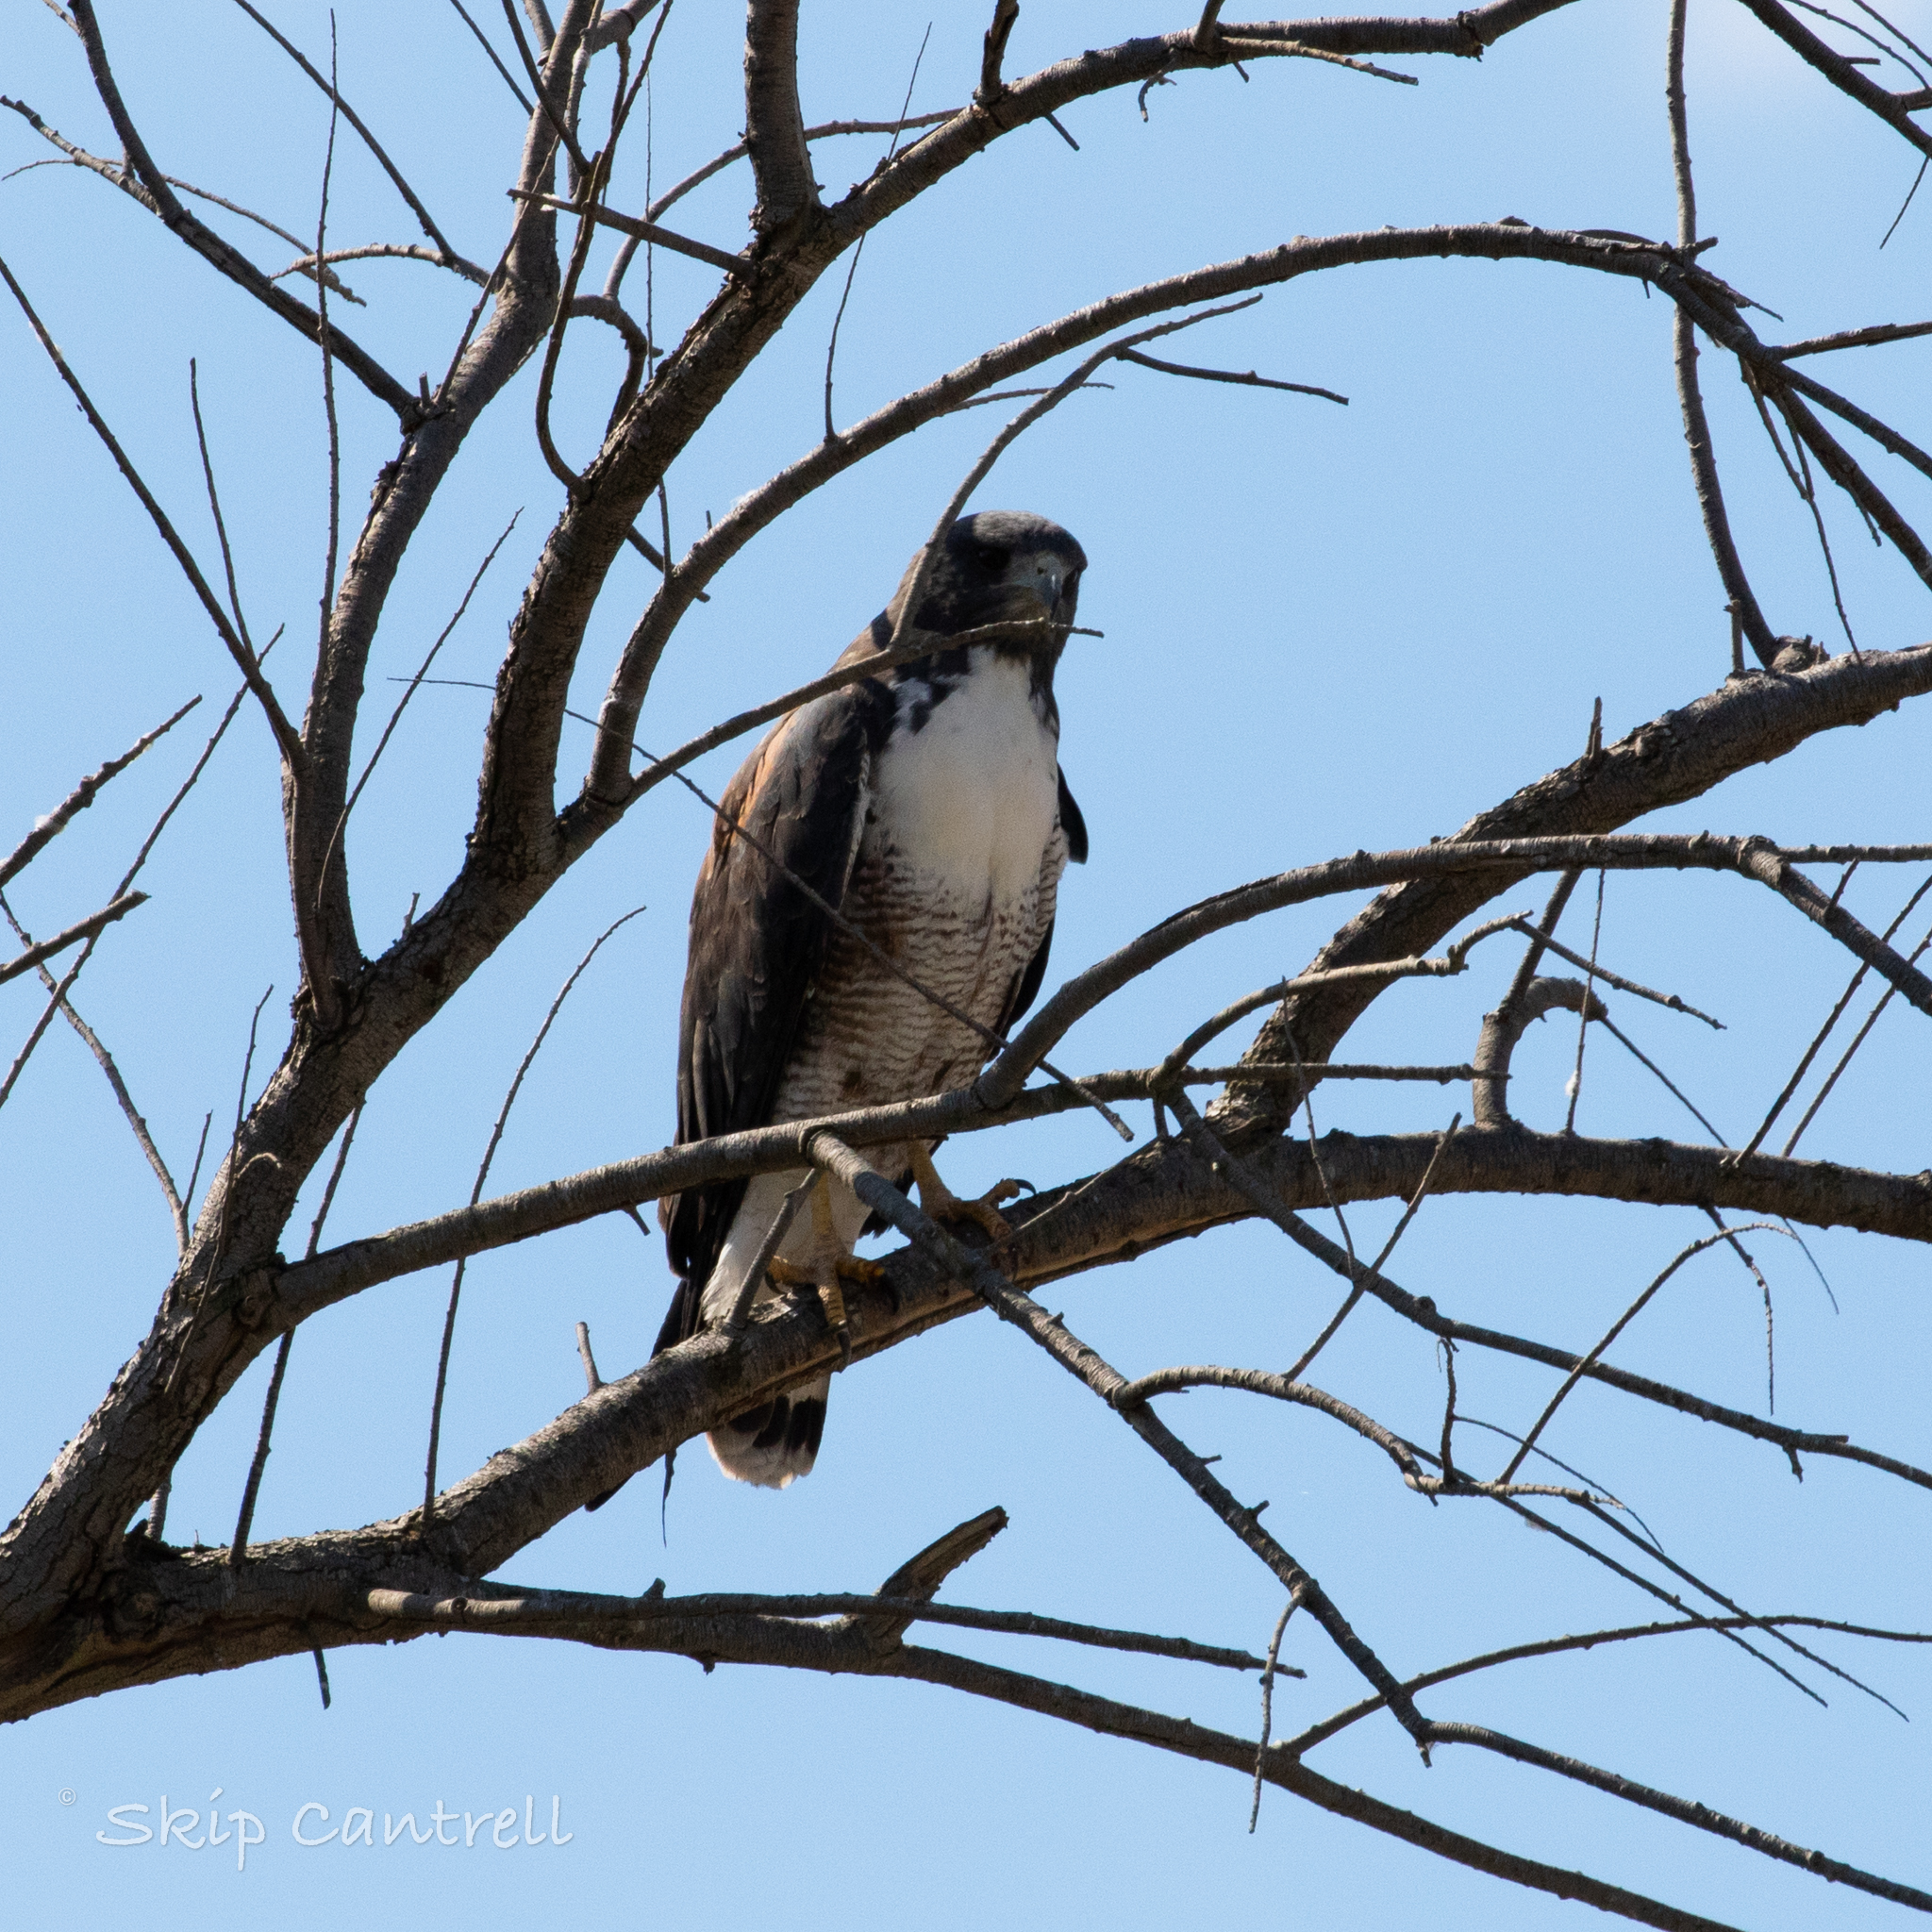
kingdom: Animalia
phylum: Chordata
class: Aves
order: Accipitriformes
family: Accipitridae
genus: Buteo
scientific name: Buteo albicaudatus
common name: White-tailed hawk
